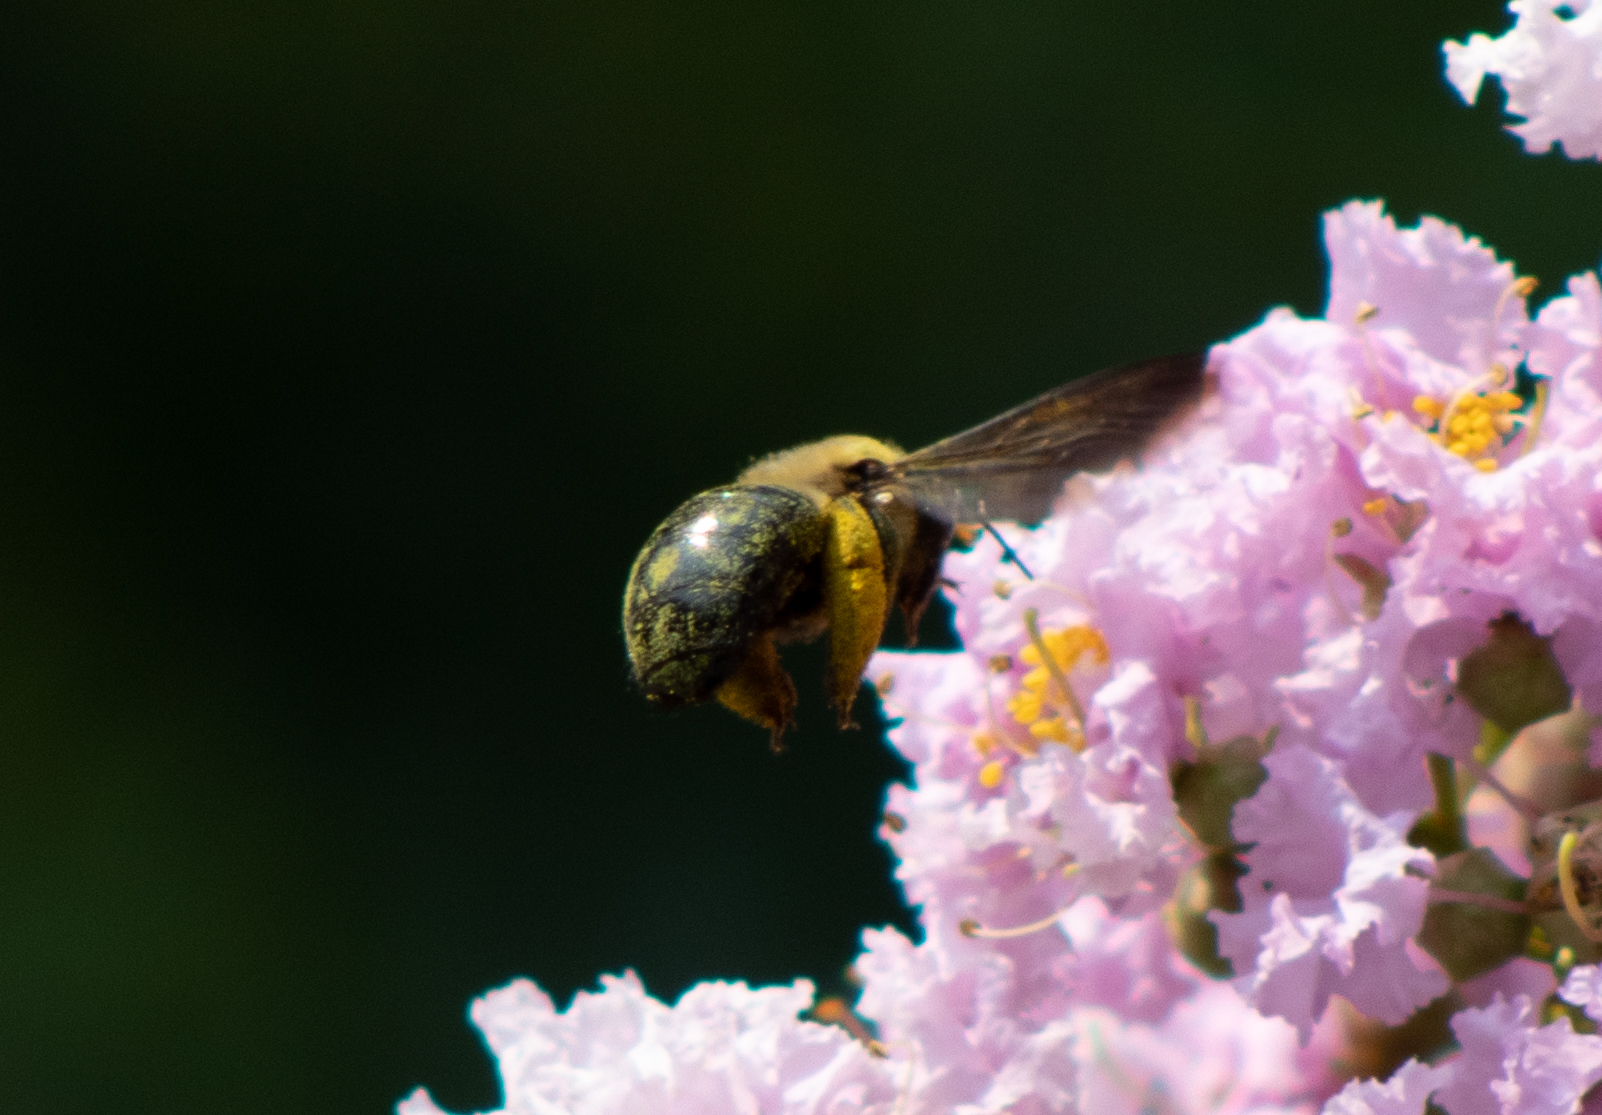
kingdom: Animalia
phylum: Arthropoda
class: Insecta
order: Hymenoptera
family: Apidae
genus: Xylocopa
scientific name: Xylocopa virginica
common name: Carpenter bee
